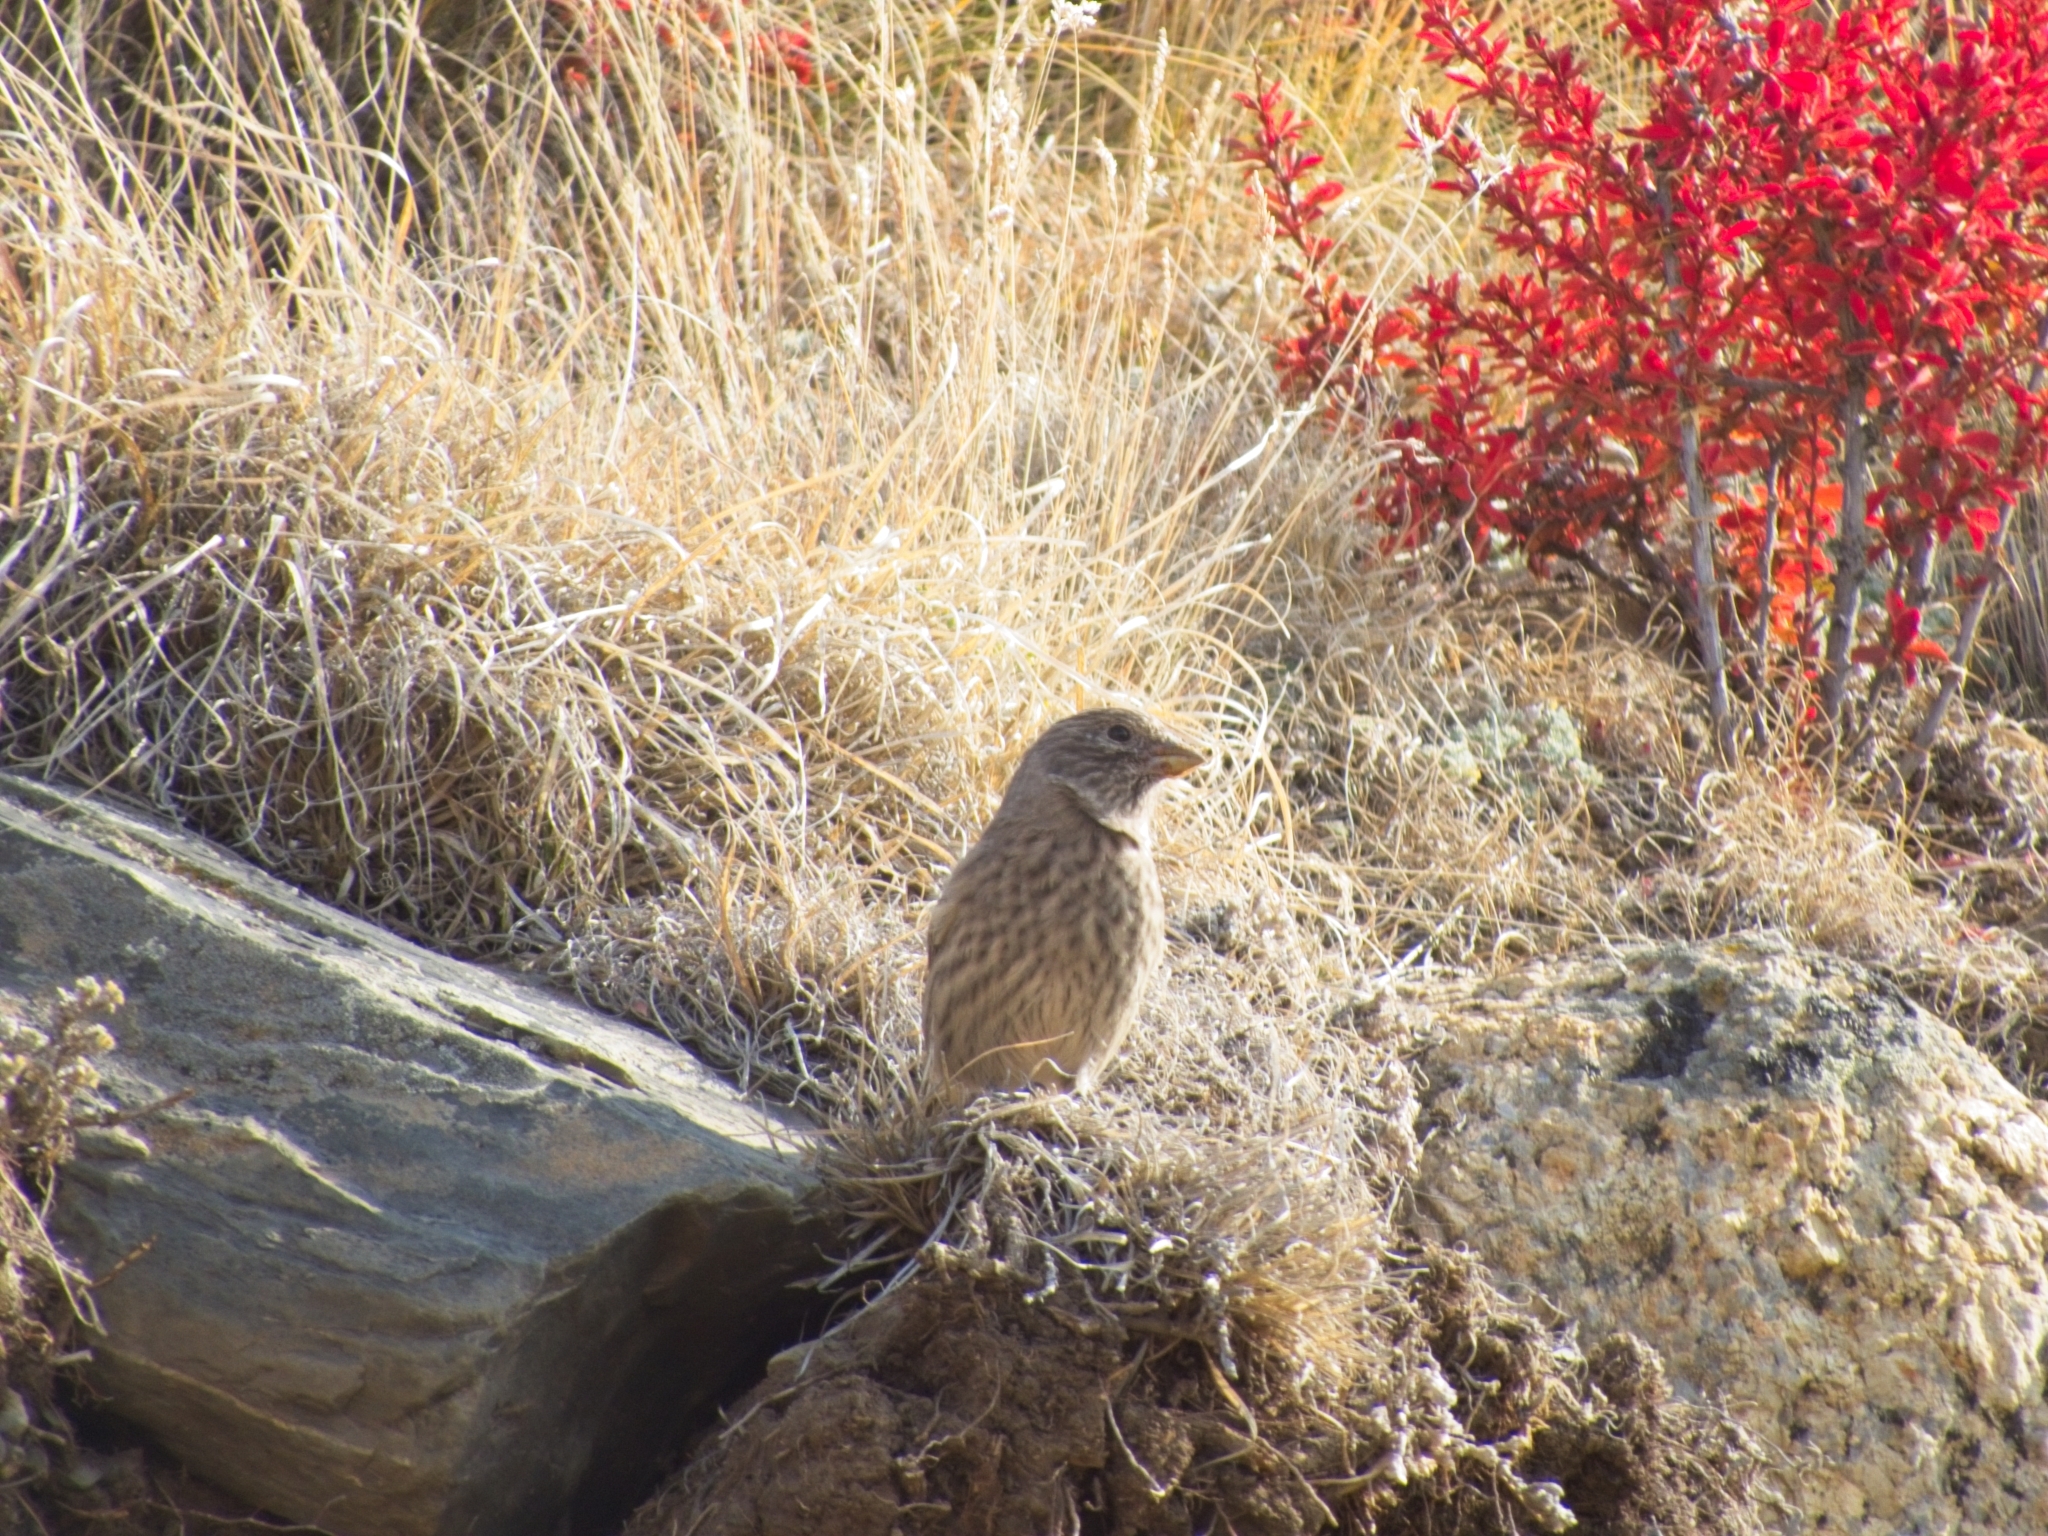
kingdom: Animalia
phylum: Chordata
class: Aves
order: Passeriformes
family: Fringillidae
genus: Carpodacus
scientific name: Carpodacus rubicilla
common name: Great rosefinch
